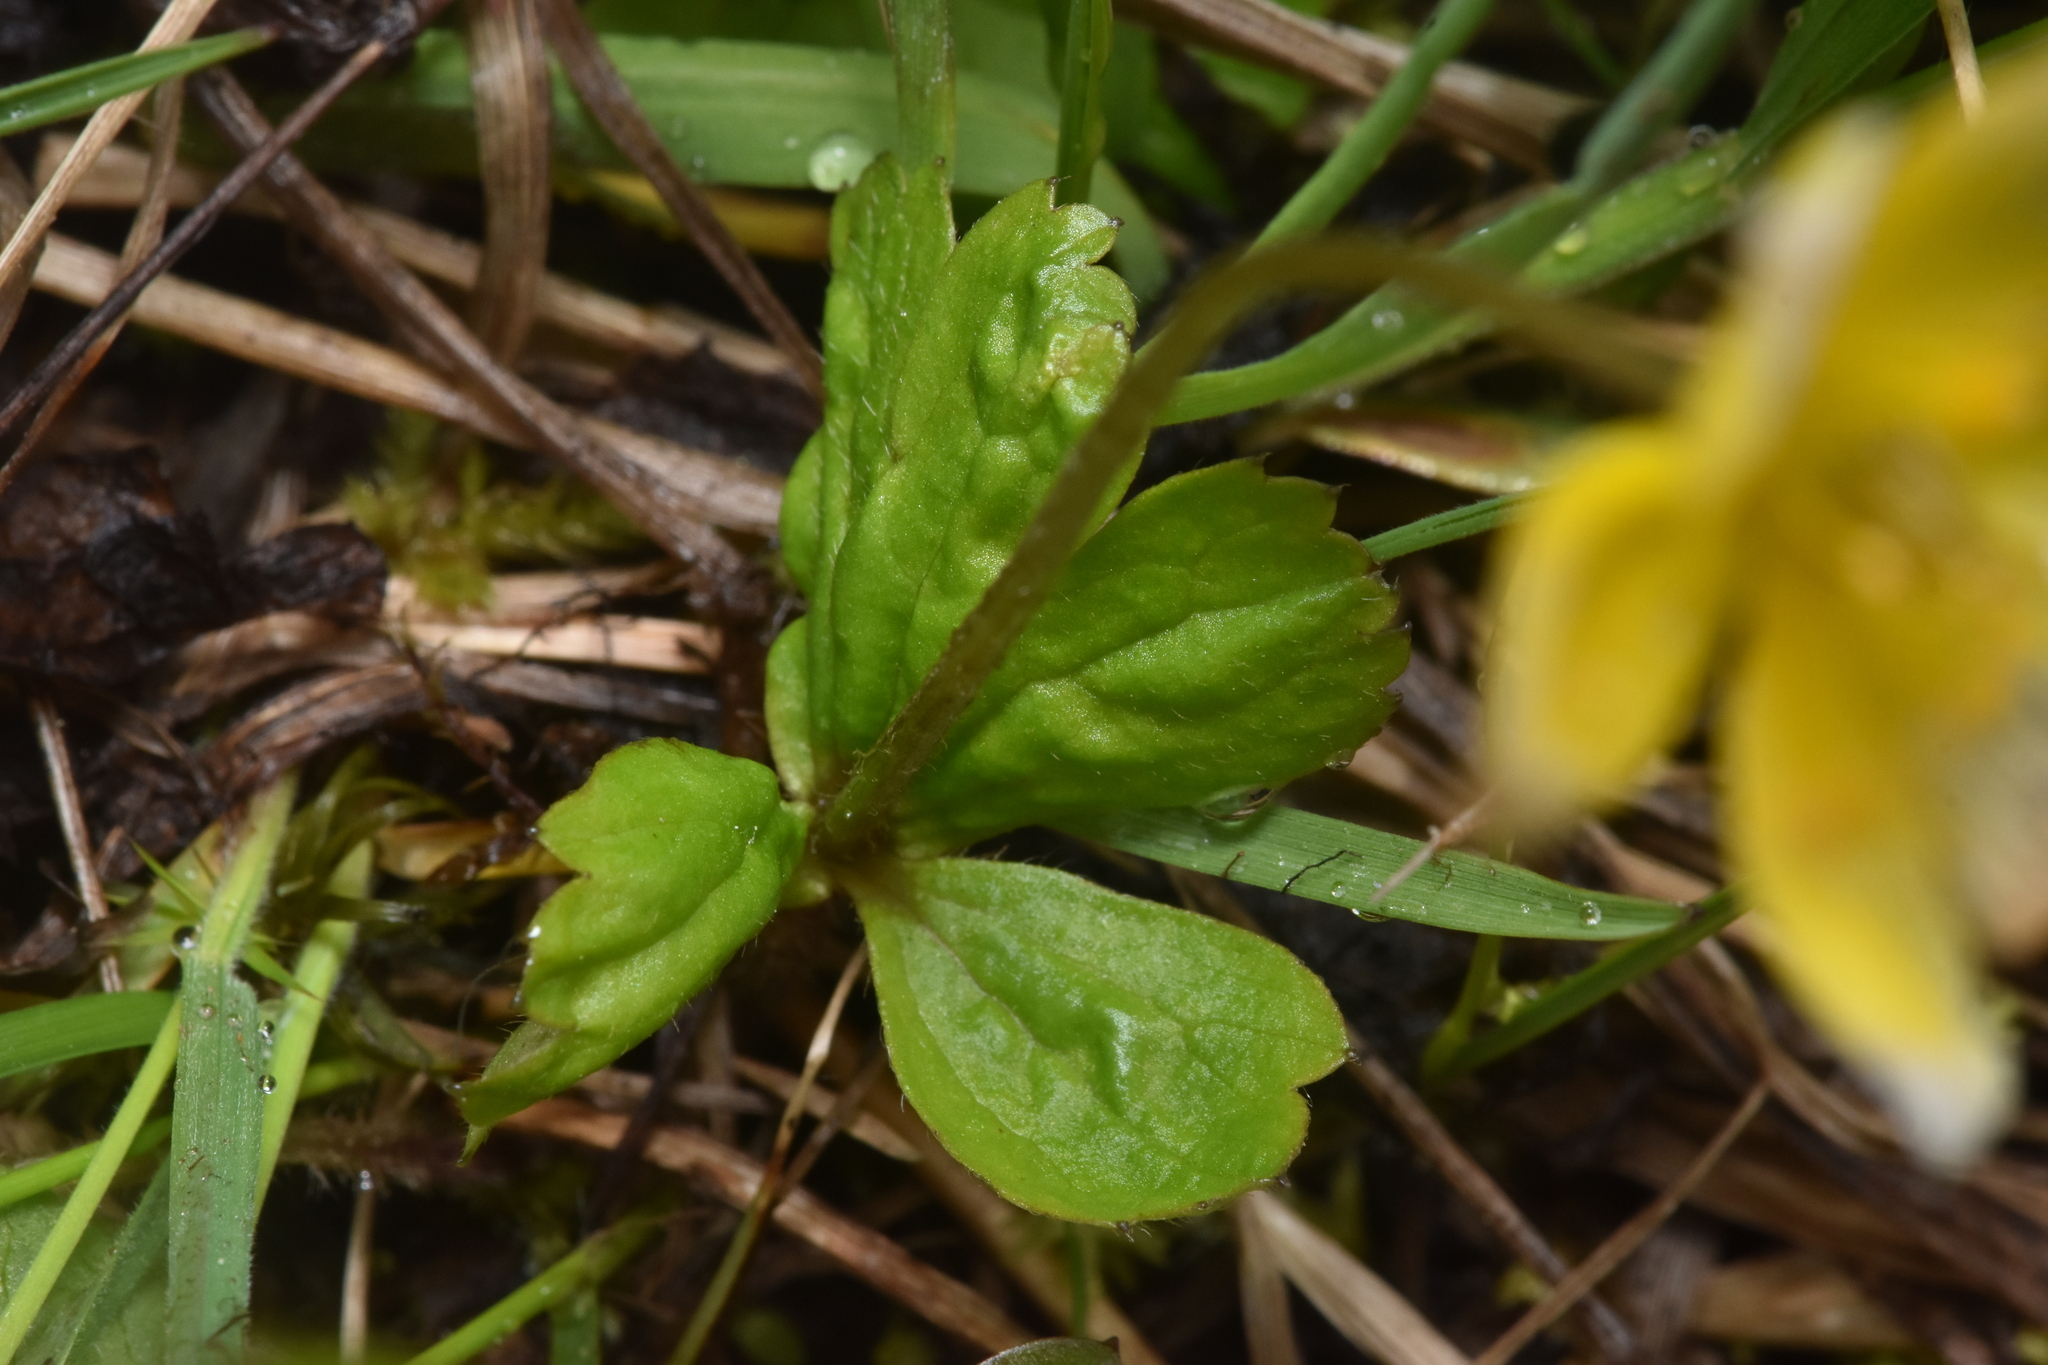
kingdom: Plantae
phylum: Tracheophyta
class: Magnoliopsida
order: Ranunculales
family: Ranunculaceae
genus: Anemonastrum
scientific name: Anemonastrum richardsonii
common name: Richardson's anemone
